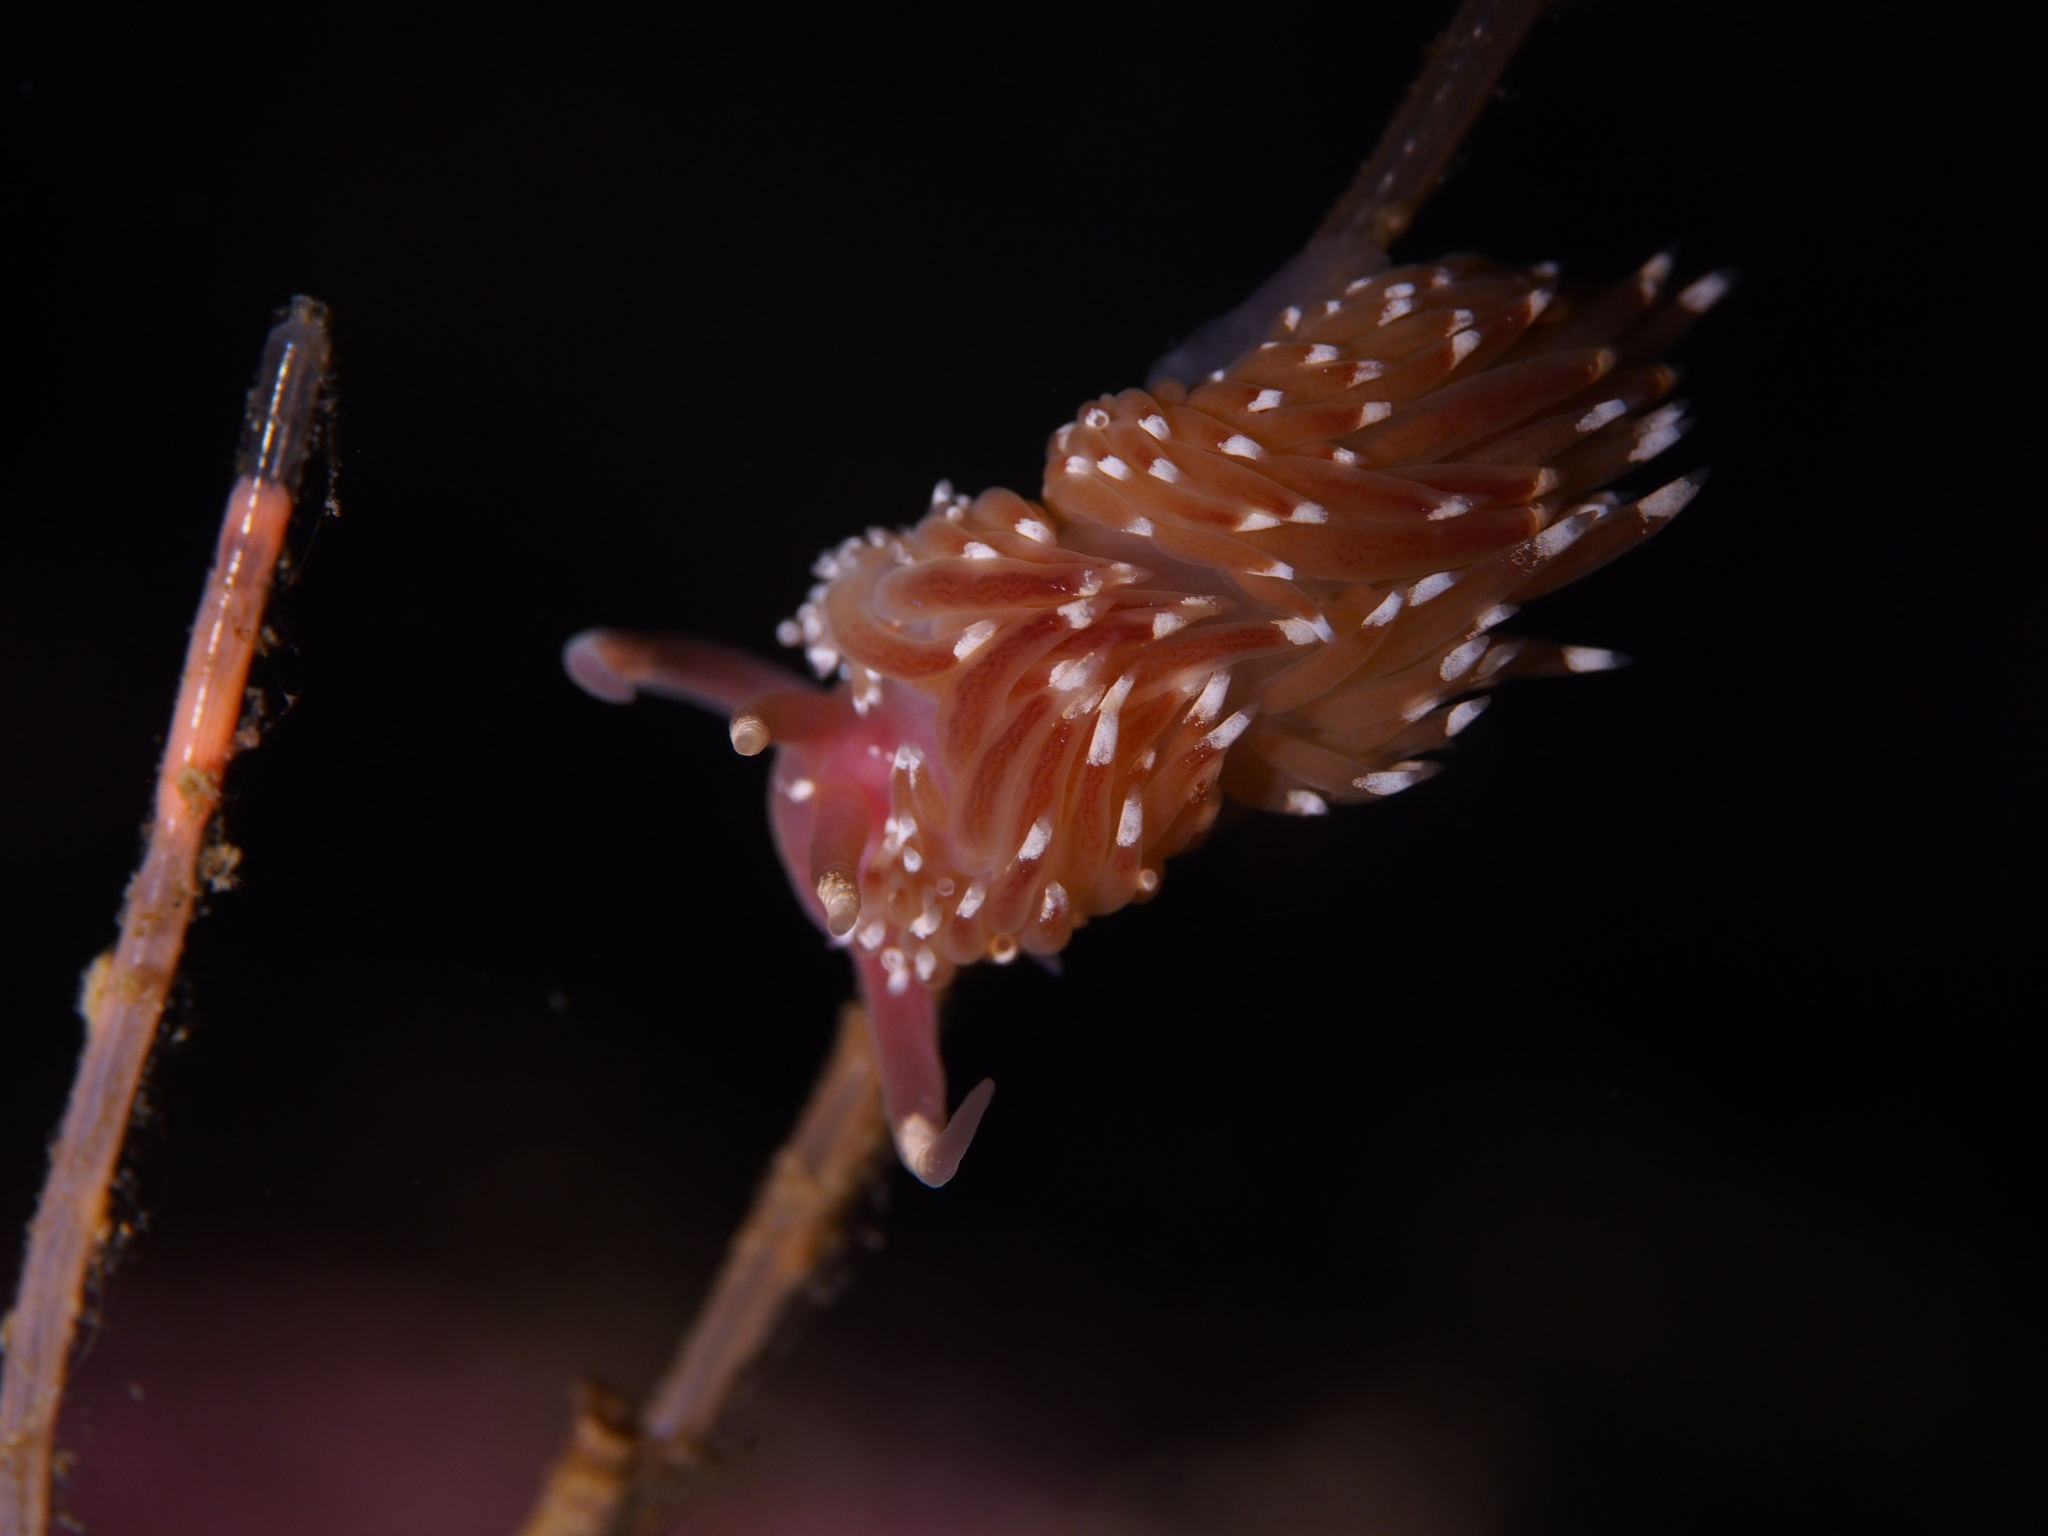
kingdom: Animalia
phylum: Mollusca
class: Gastropoda
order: Nudibranchia
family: Facelinidae
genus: Facelina
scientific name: Facelina bostoniensis
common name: Boston facelina
